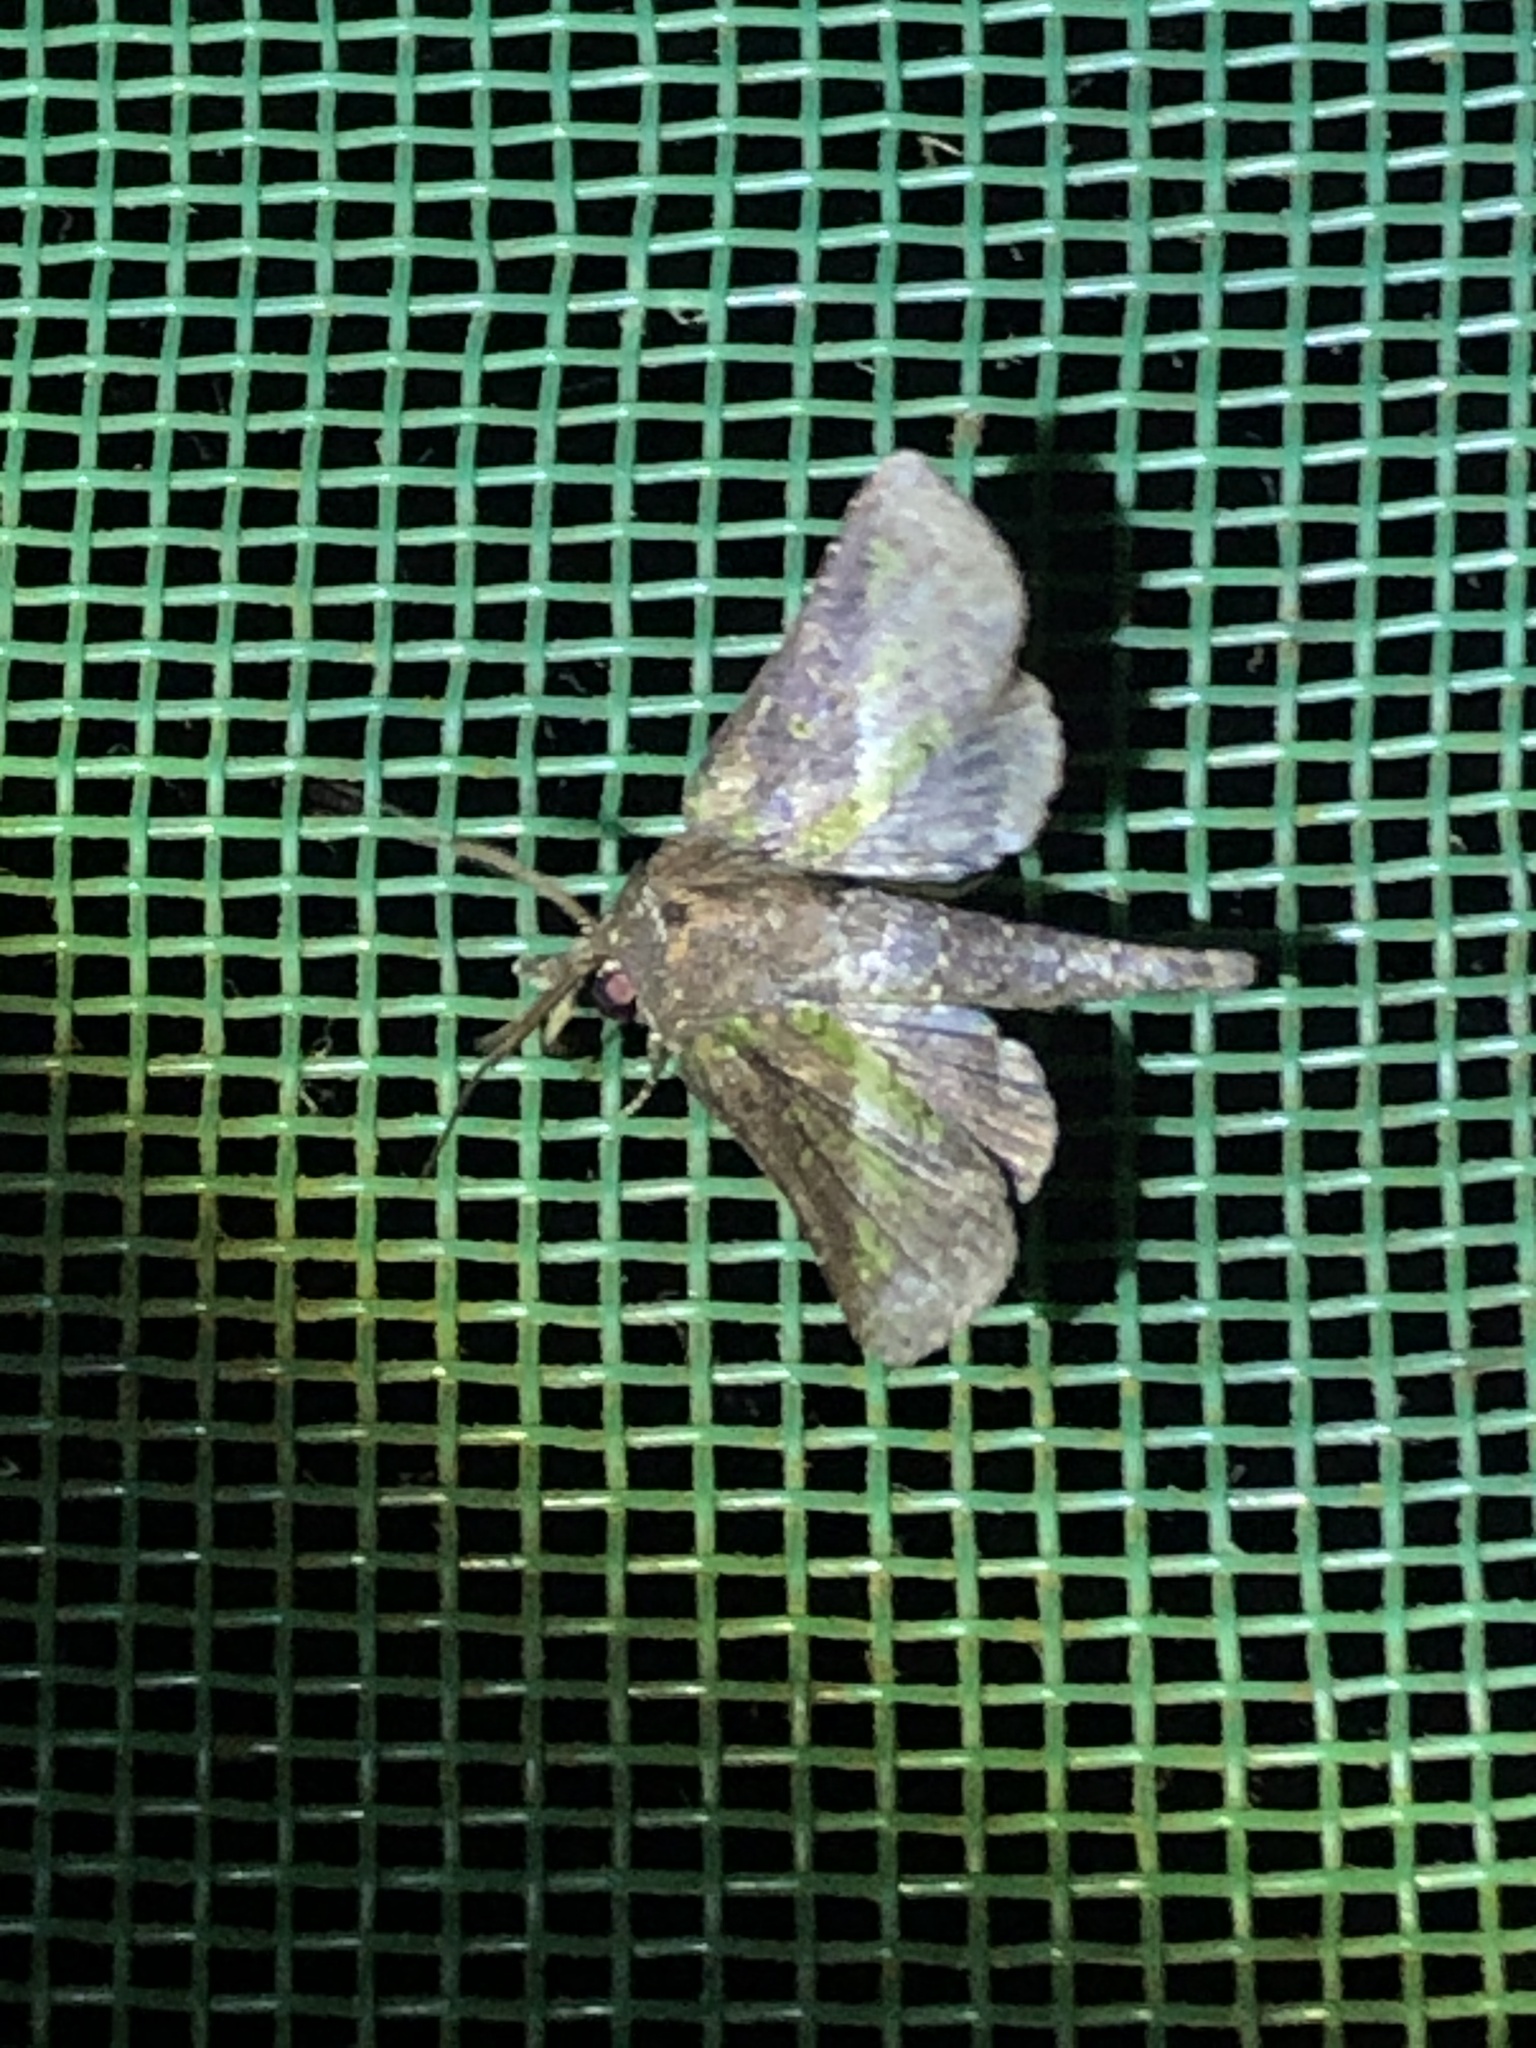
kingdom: Animalia
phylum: Arthropoda
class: Insecta
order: Lepidoptera
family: Euteliidae
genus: Paectes
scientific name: Paectes fovifera
